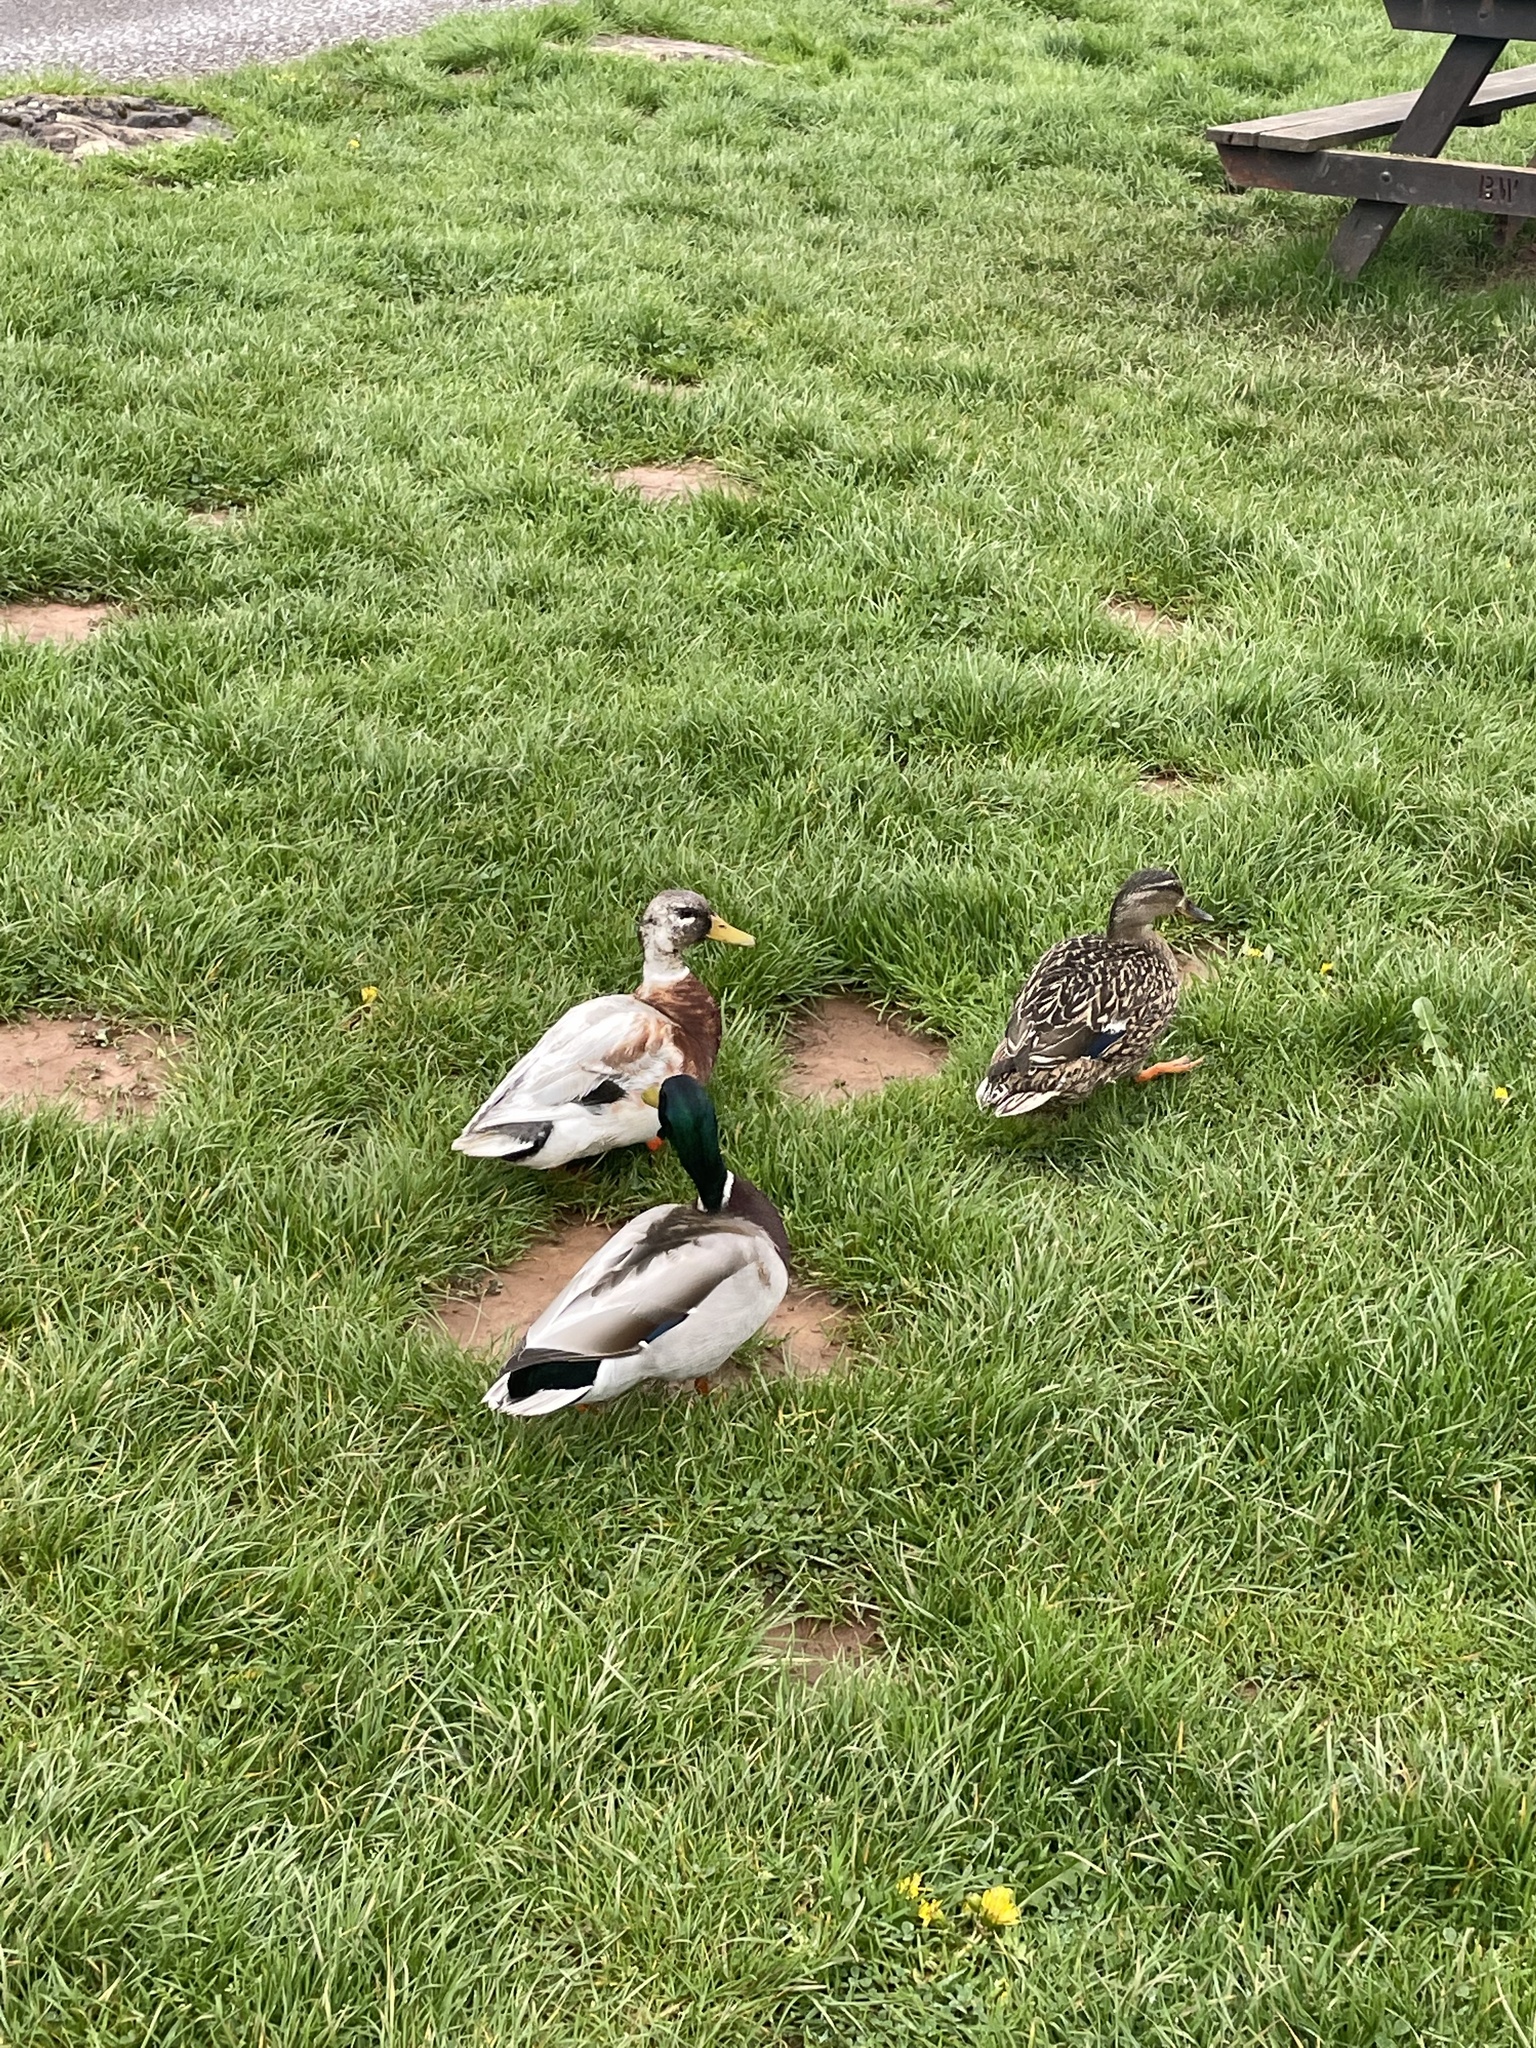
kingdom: Animalia
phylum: Chordata
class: Aves
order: Anseriformes
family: Anatidae
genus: Anas
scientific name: Anas platyrhynchos
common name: Mallard
